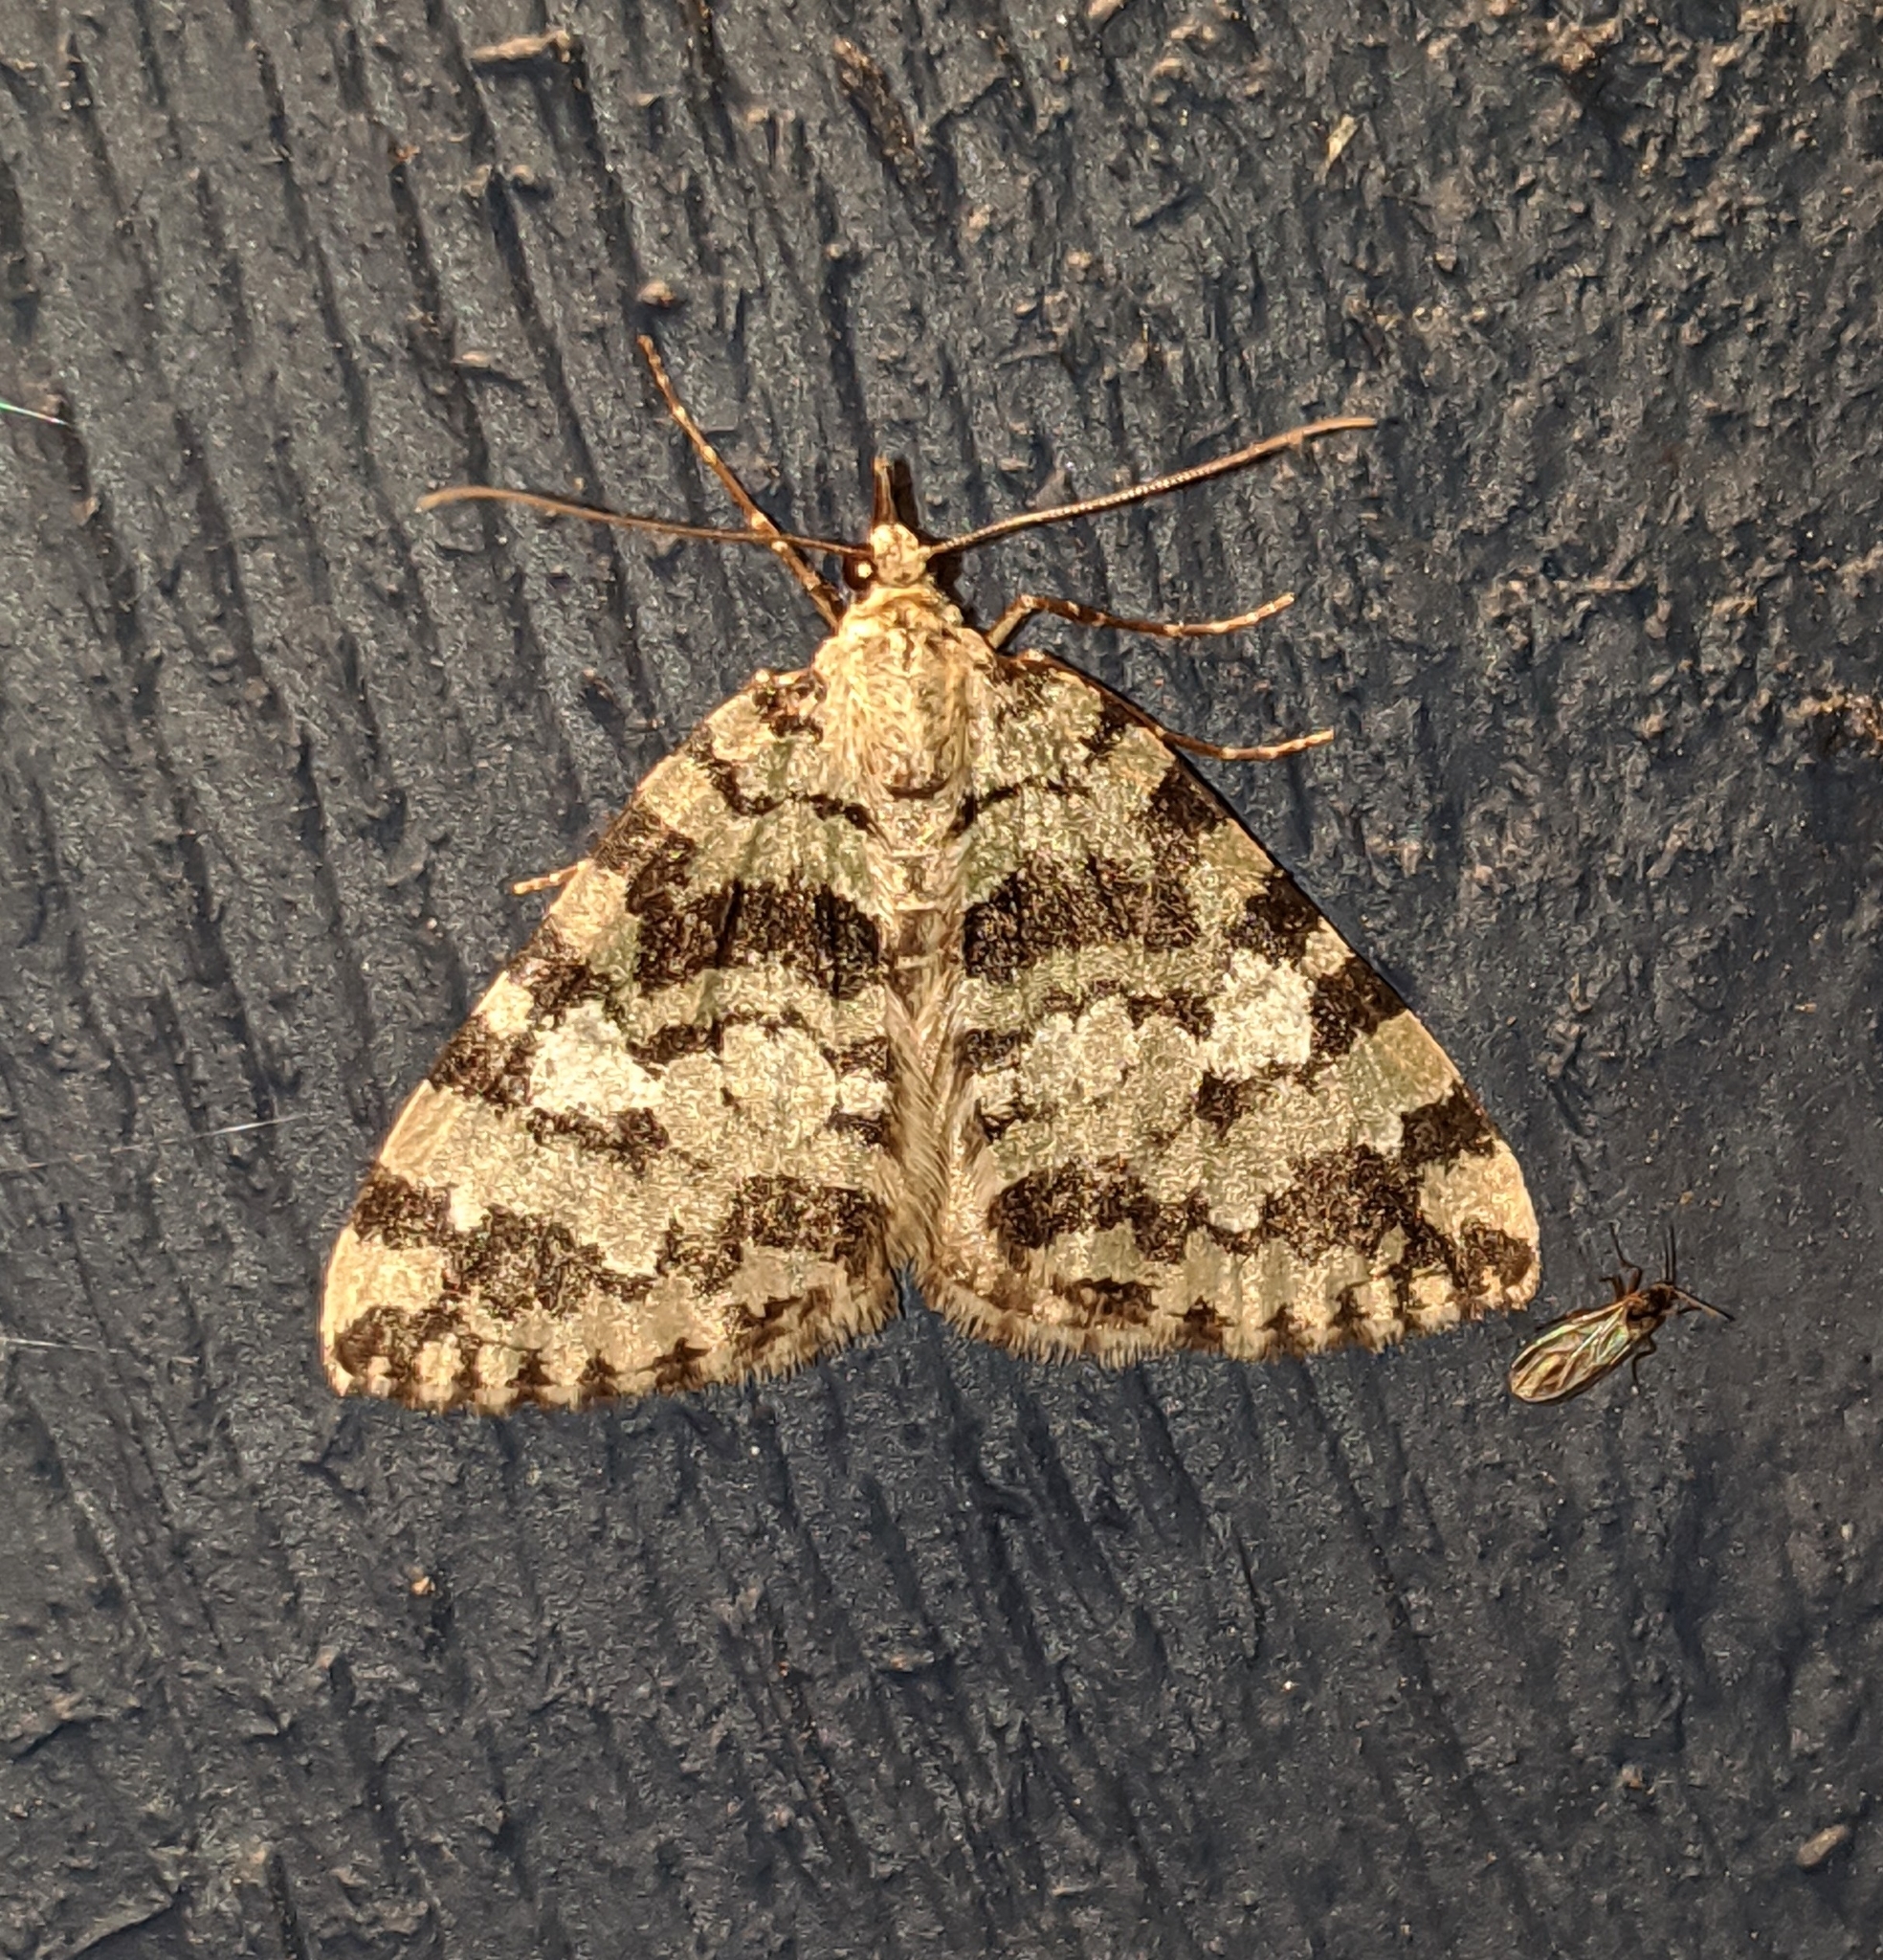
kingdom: Animalia
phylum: Arthropoda
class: Insecta
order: Lepidoptera
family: Geometridae
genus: Hydriomena
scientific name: Hydriomena speciosata
